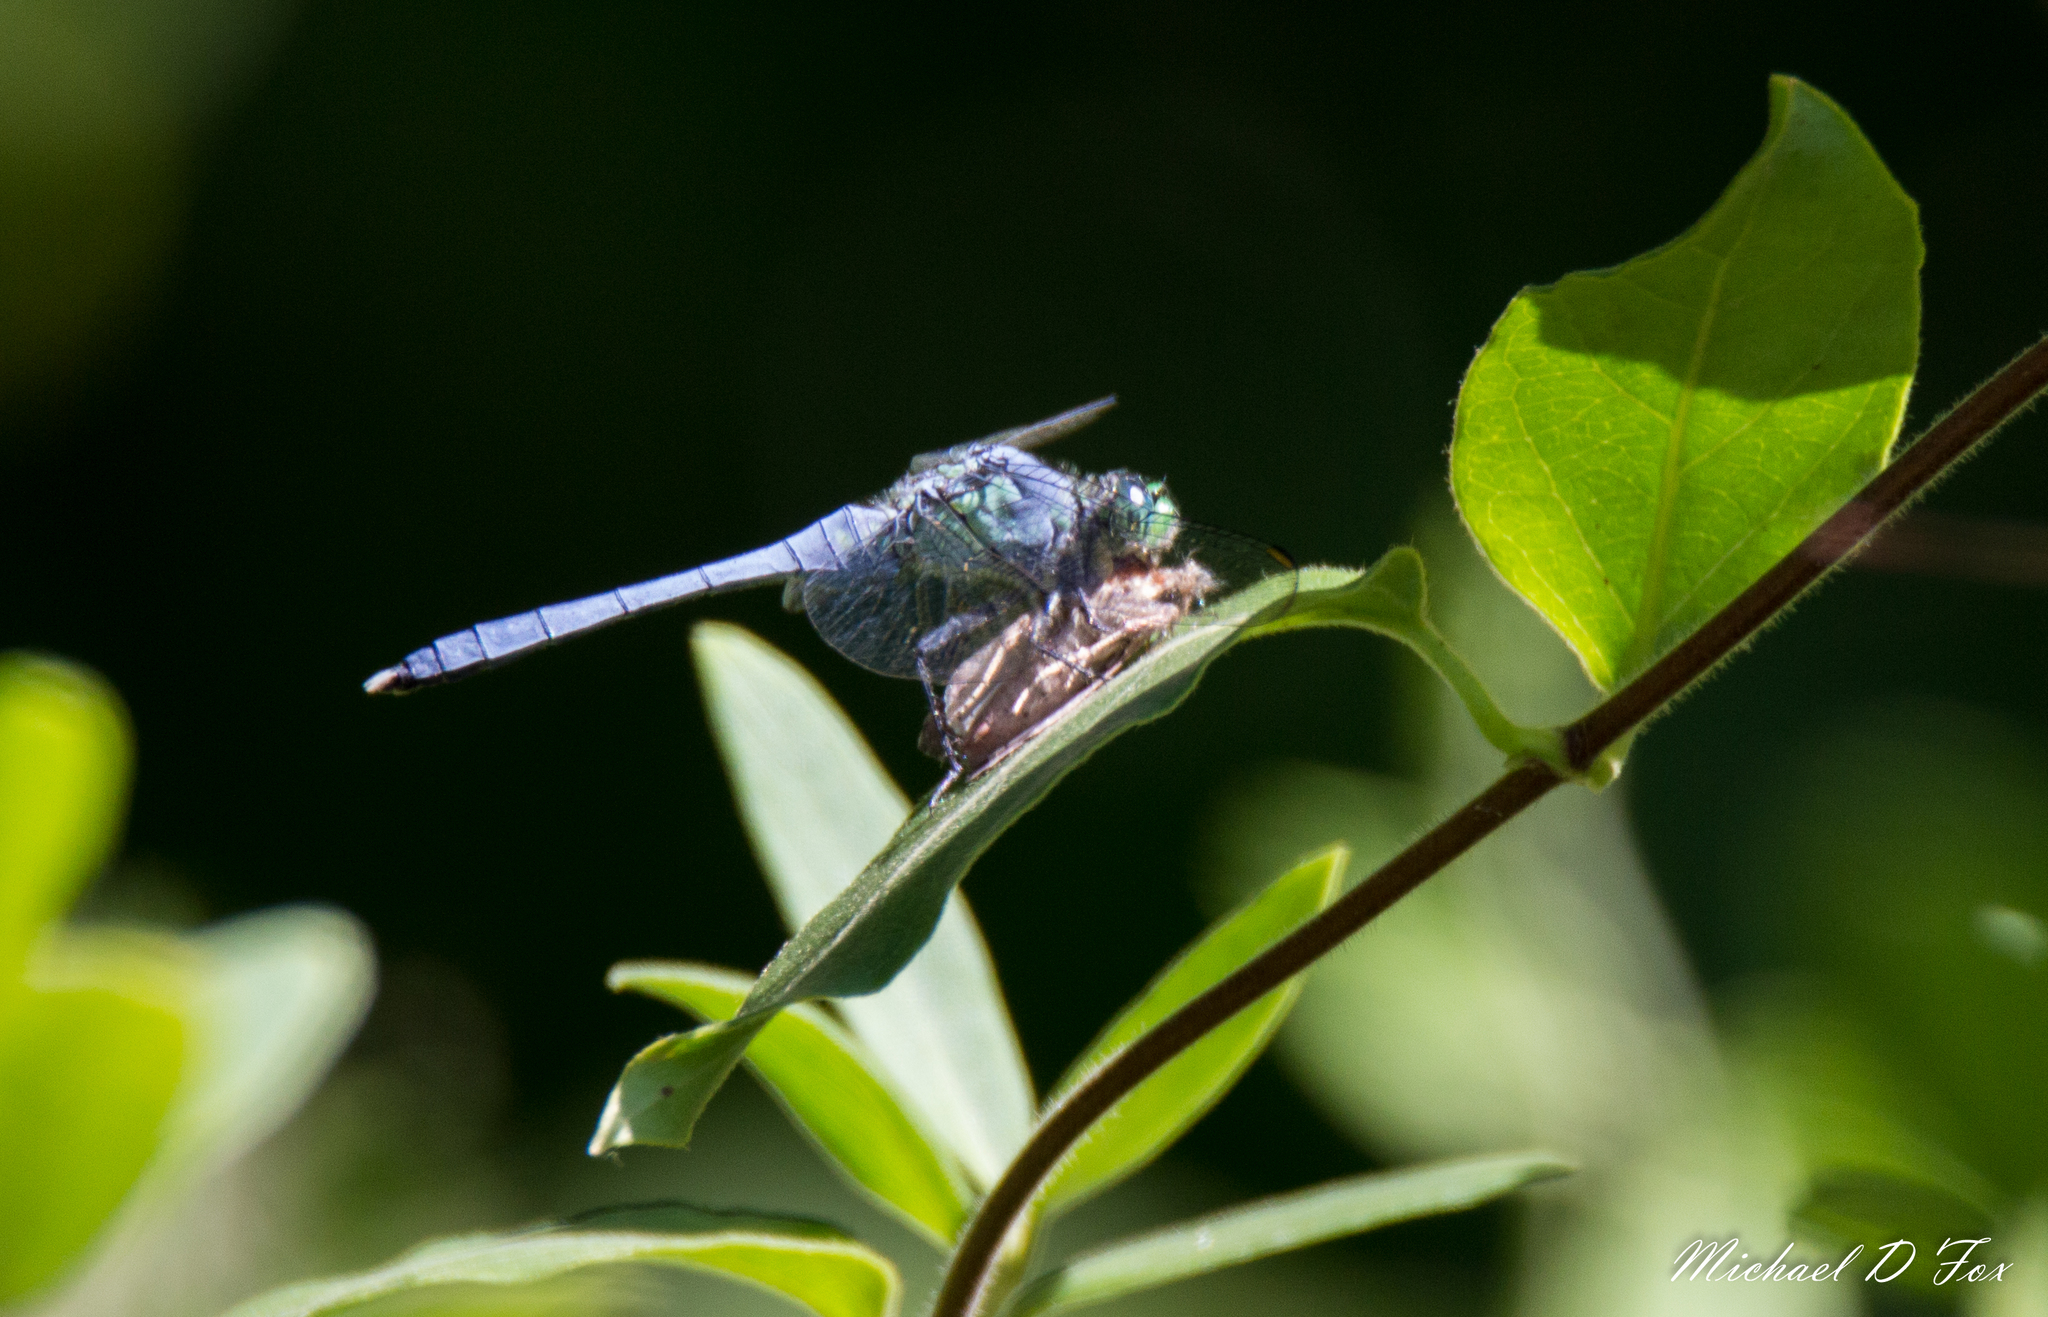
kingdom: Animalia
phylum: Arthropoda
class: Insecta
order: Odonata
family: Libellulidae
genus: Erythemis
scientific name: Erythemis simplicicollis
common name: Eastern pondhawk
